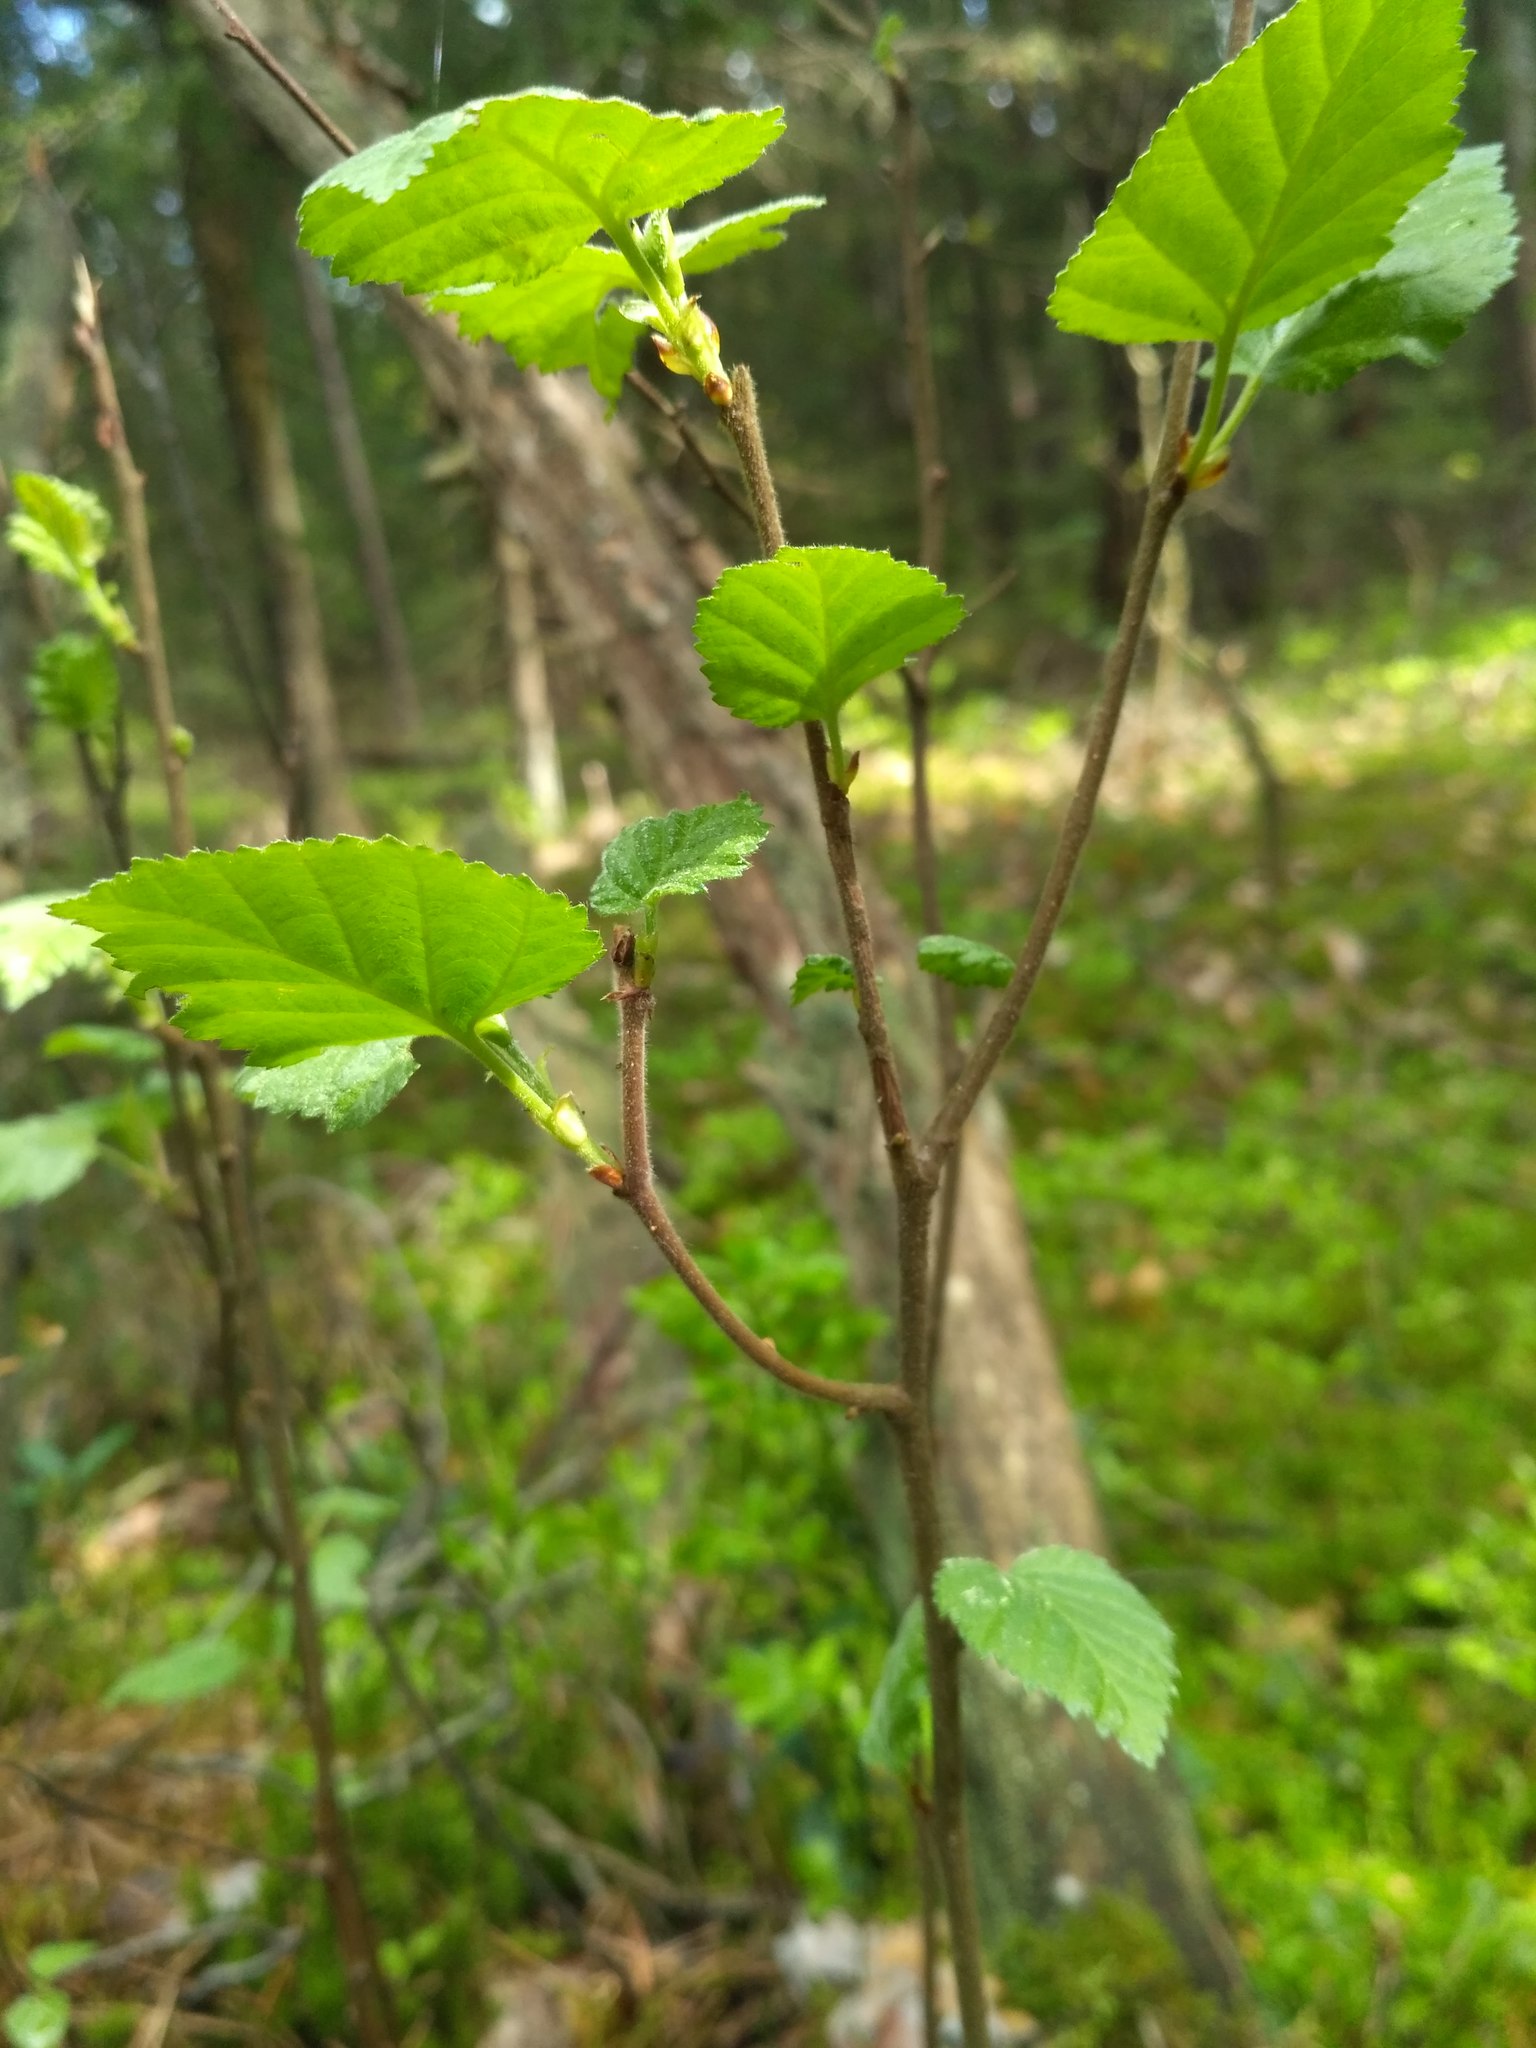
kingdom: Plantae
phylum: Tracheophyta
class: Magnoliopsida
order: Fagales
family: Betulaceae
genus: Betula
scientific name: Betula pendula
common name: Silver birch
